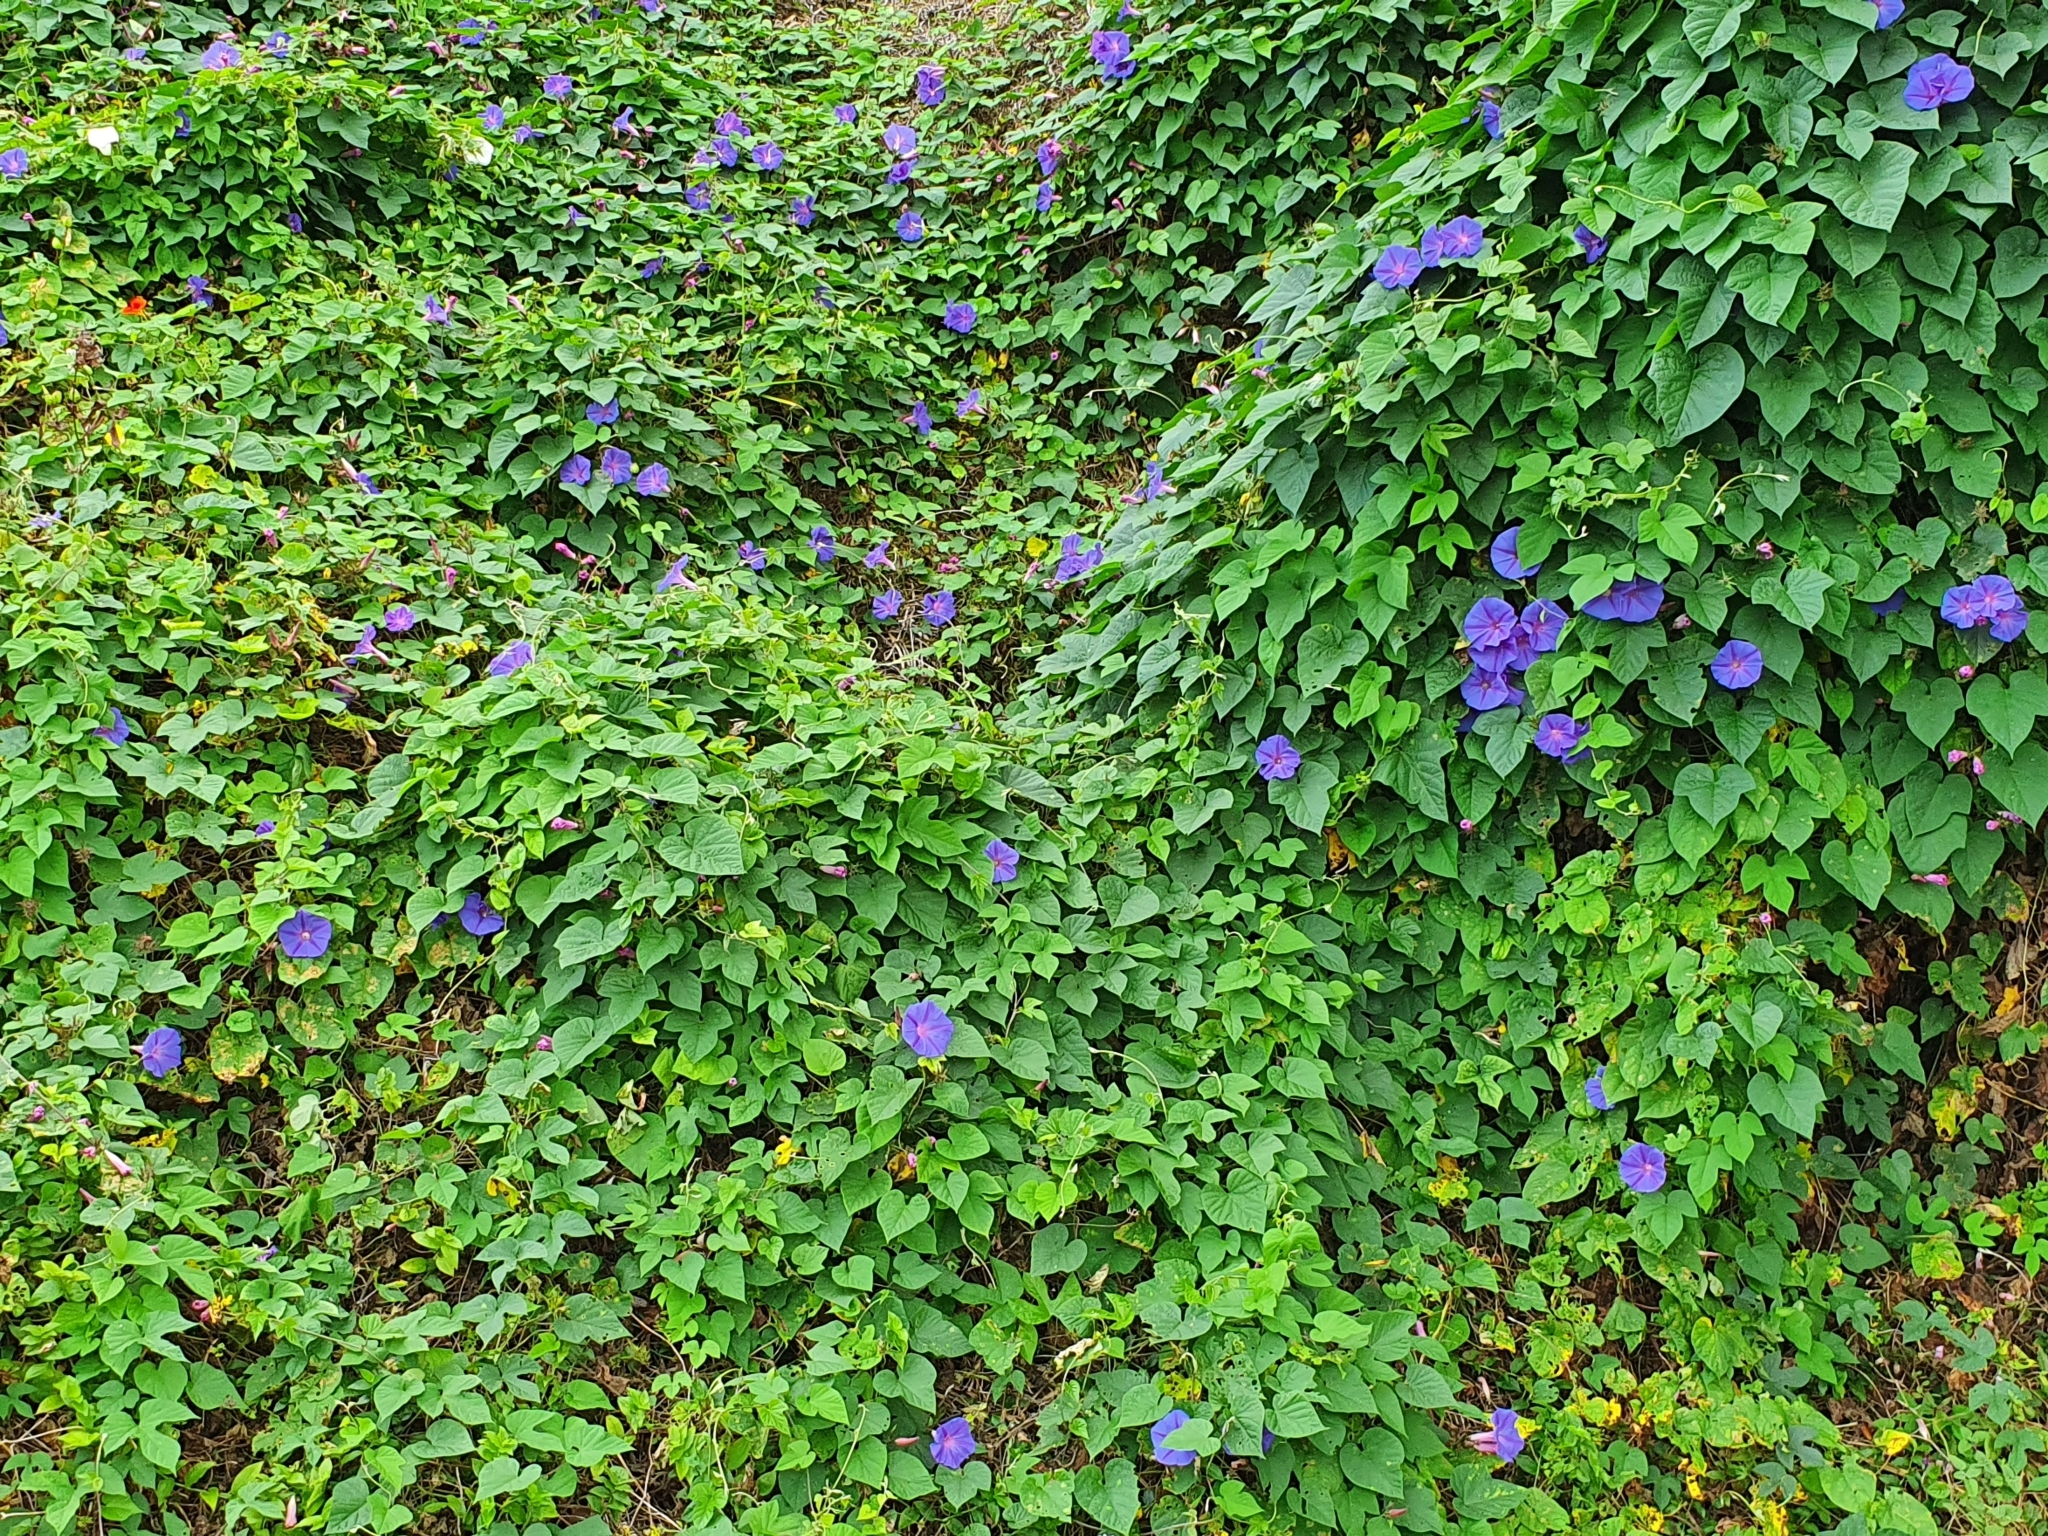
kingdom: Plantae
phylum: Tracheophyta
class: Magnoliopsida
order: Solanales
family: Convolvulaceae
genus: Ipomoea
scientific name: Ipomoea indica
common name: Blue dawnflower
